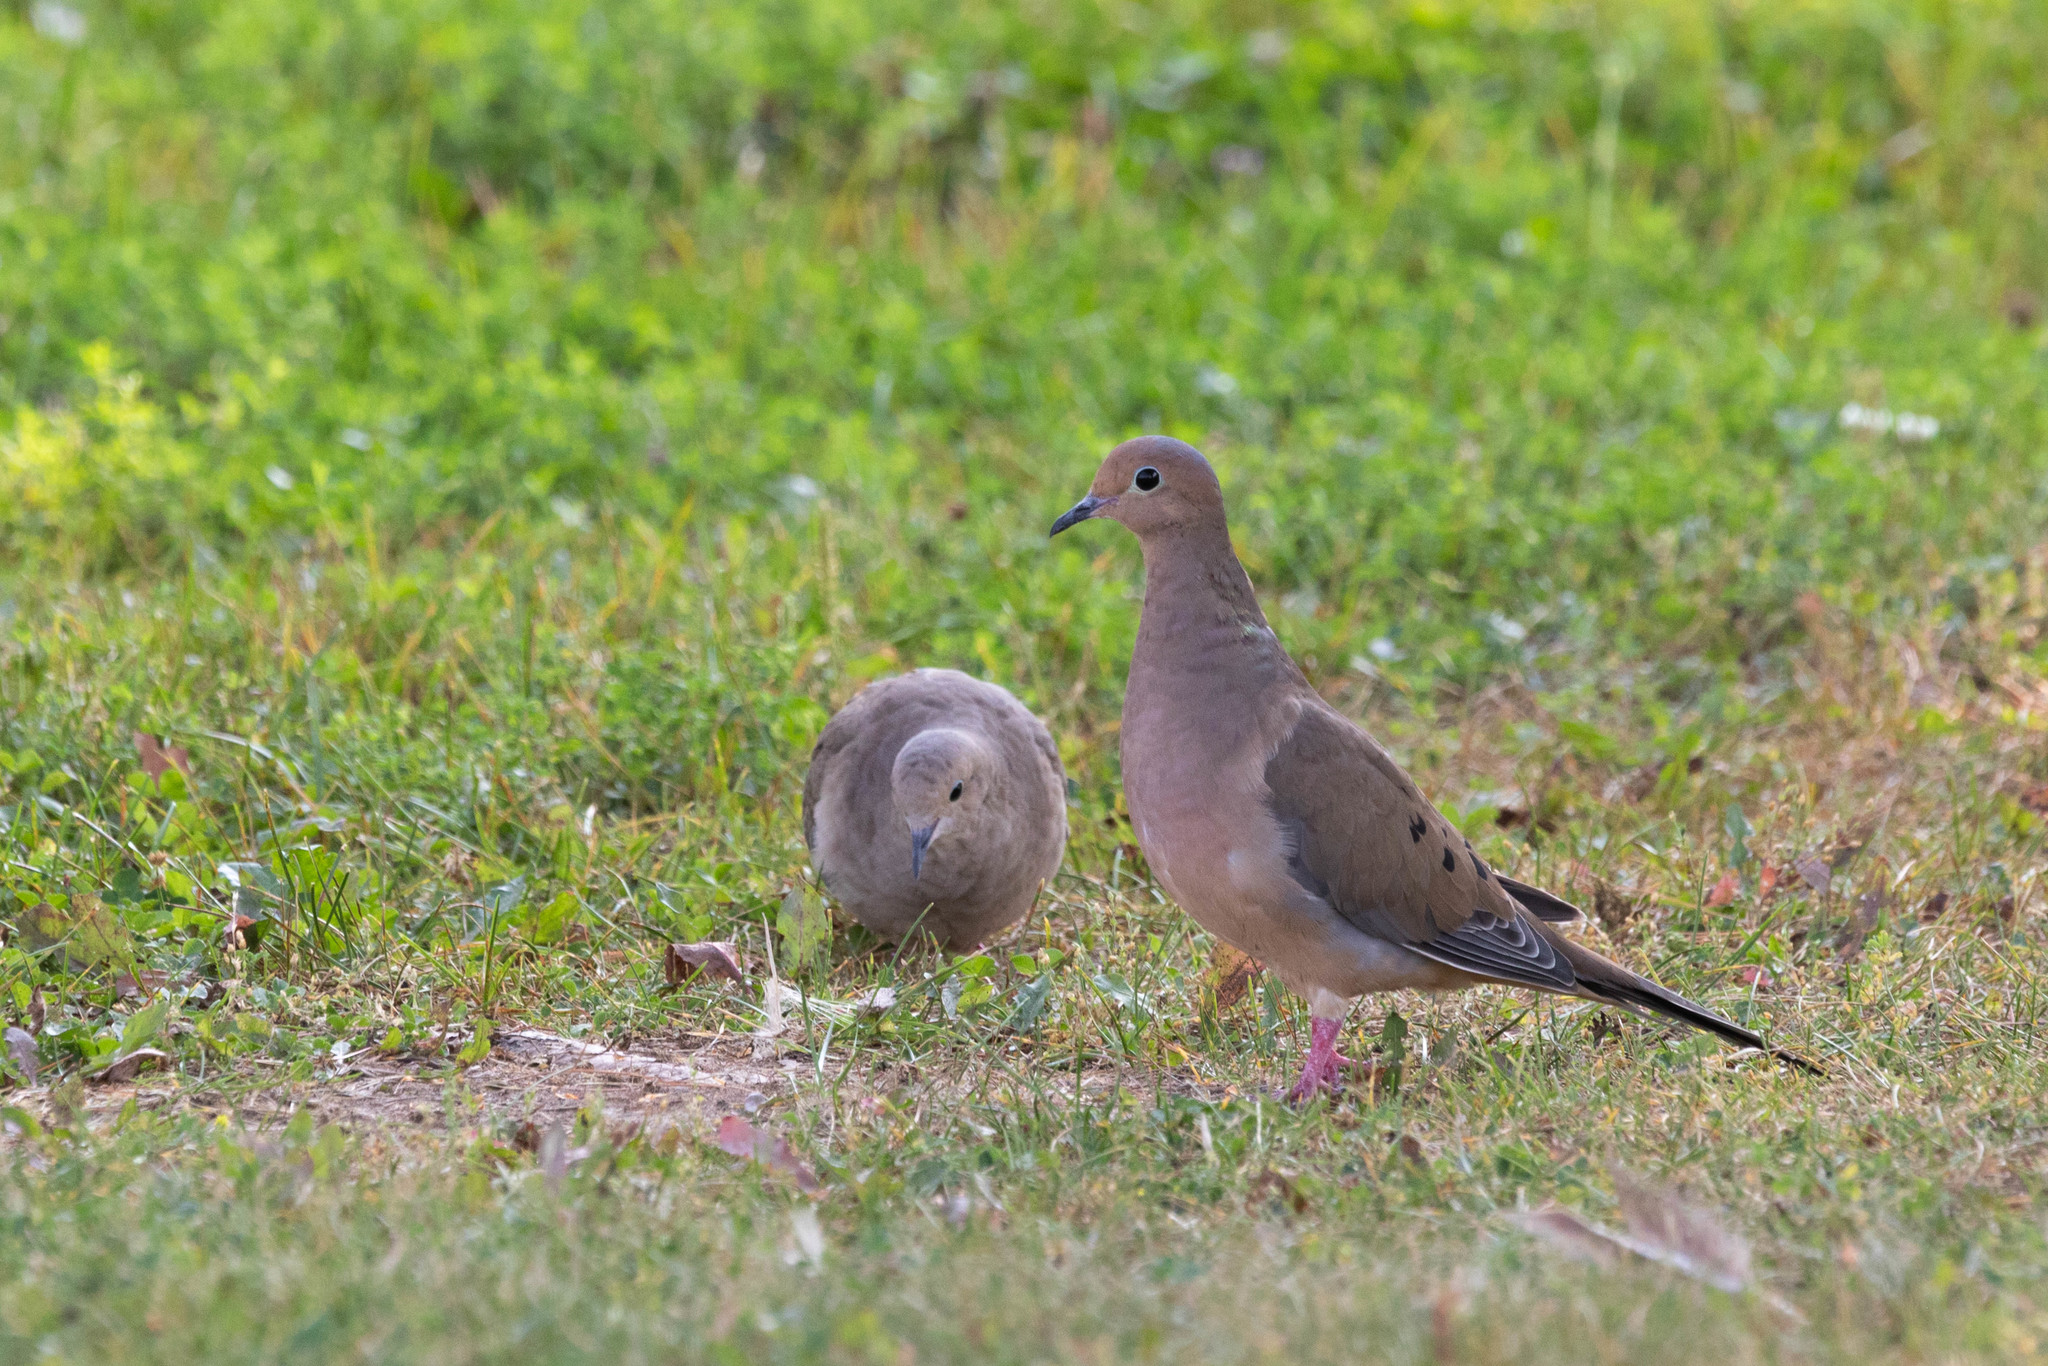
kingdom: Animalia
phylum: Chordata
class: Aves
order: Columbiformes
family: Columbidae
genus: Zenaida
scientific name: Zenaida macroura
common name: Mourning dove
